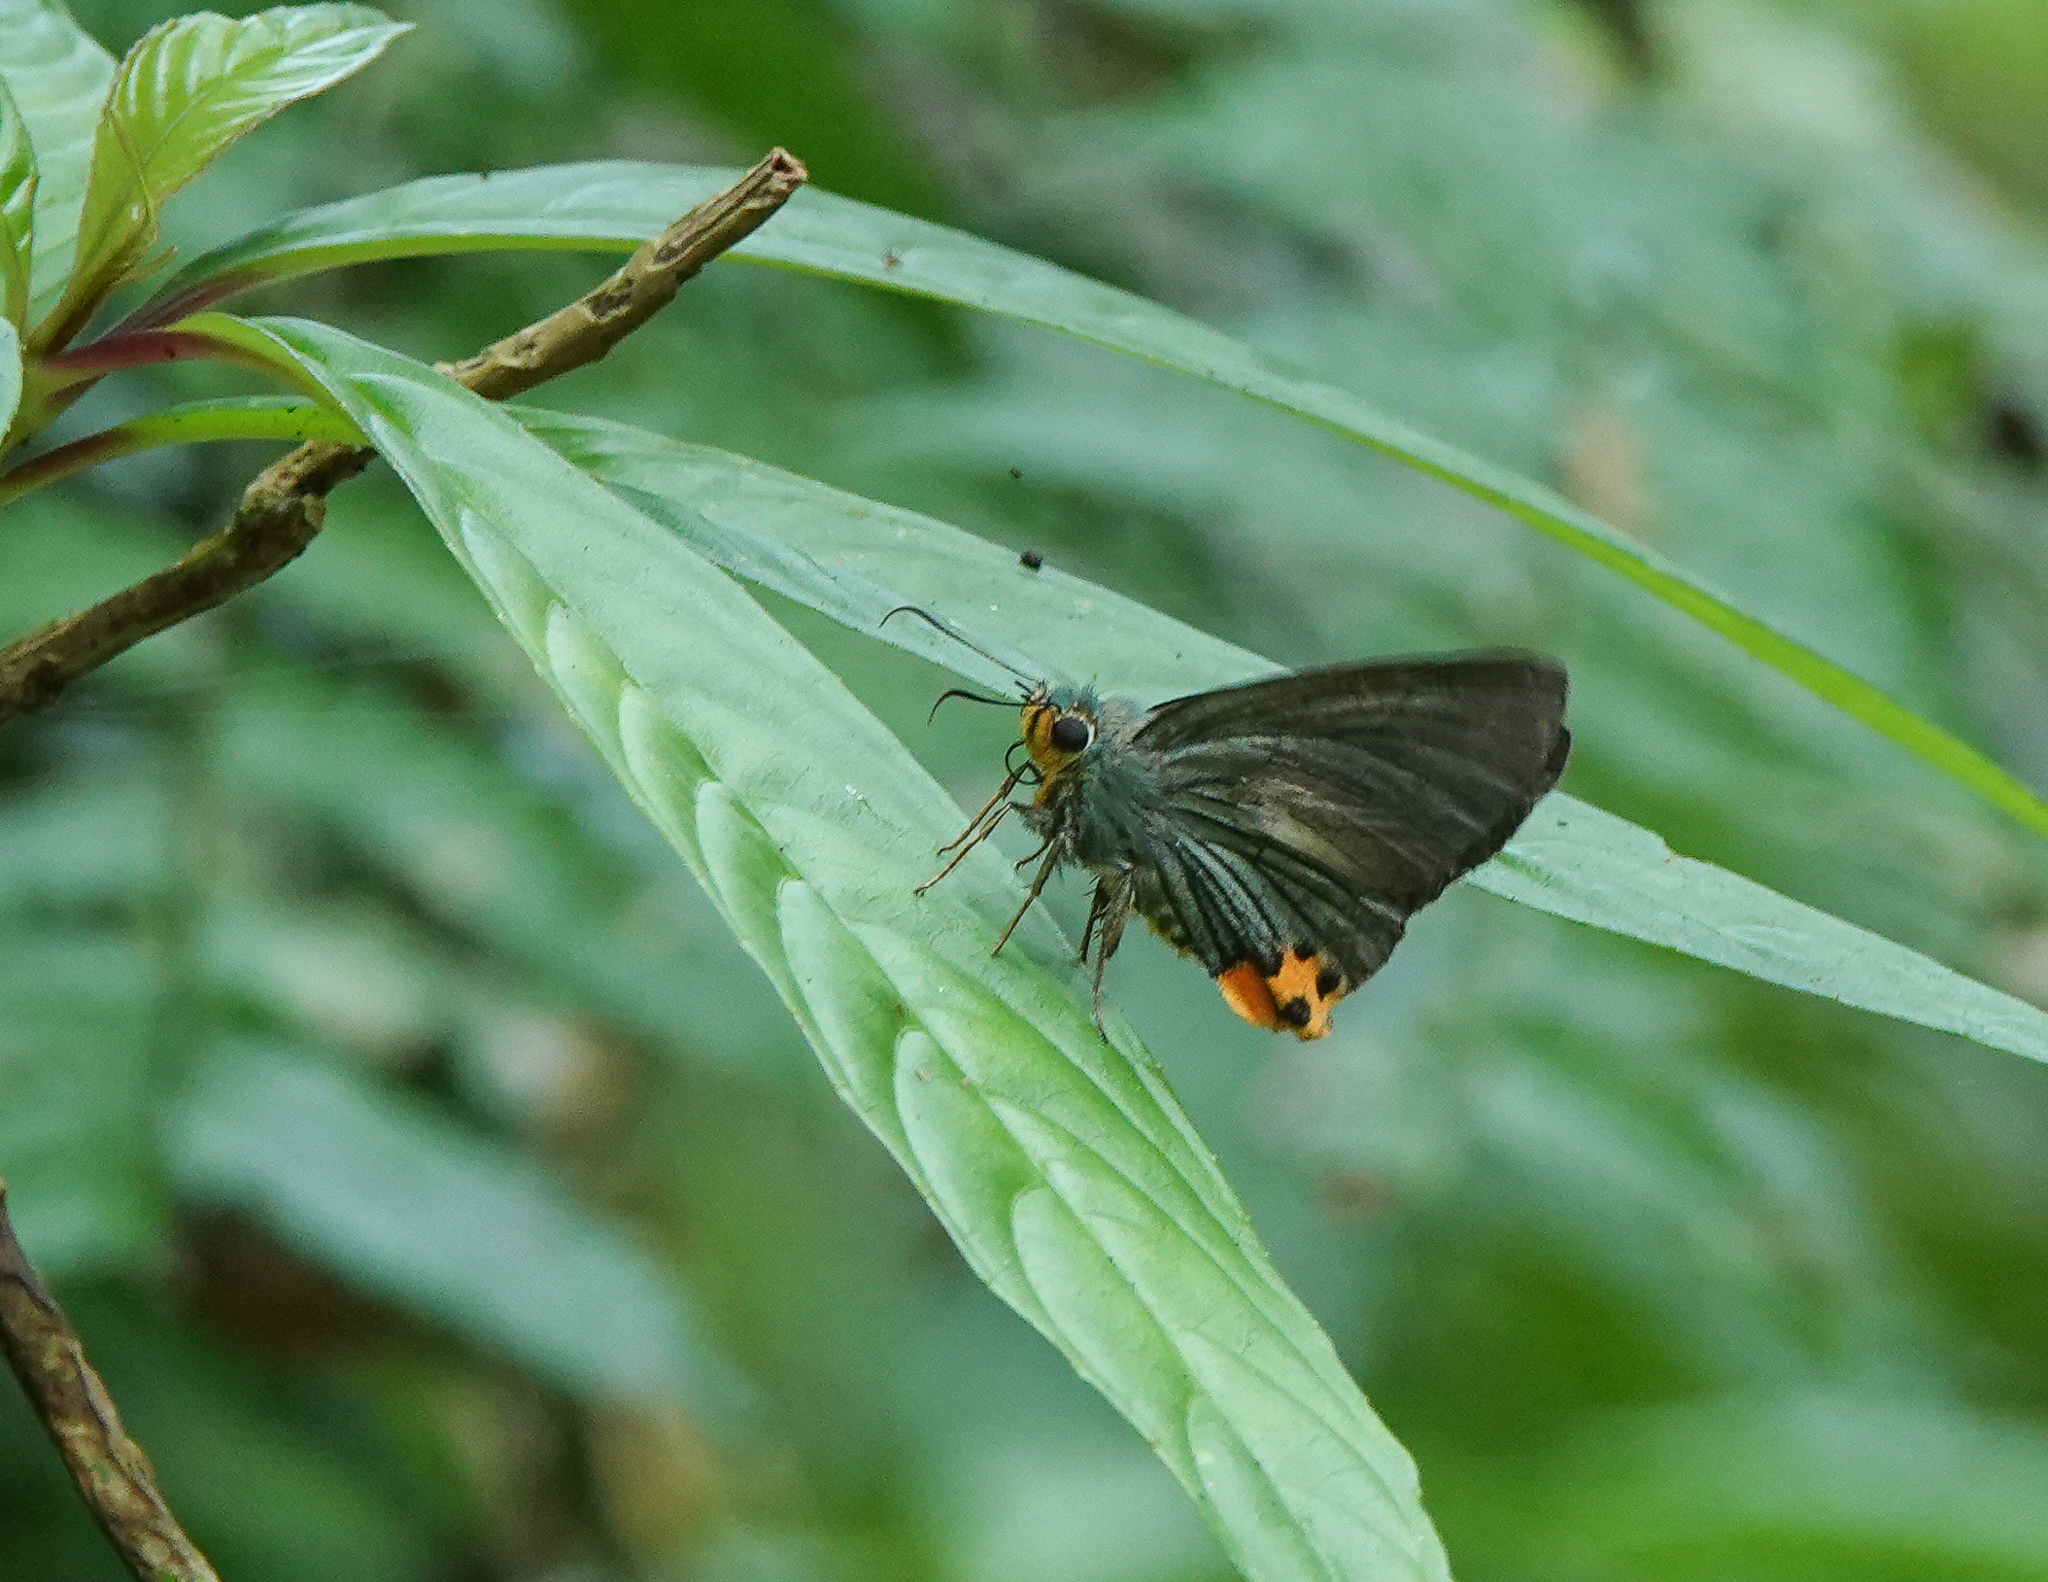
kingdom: Animalia
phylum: Arthropoda
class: Insecta
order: Lepidoptera
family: Hesperiidae
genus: Choaspes
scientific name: Choaspes benjaminii
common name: Indian awlking
